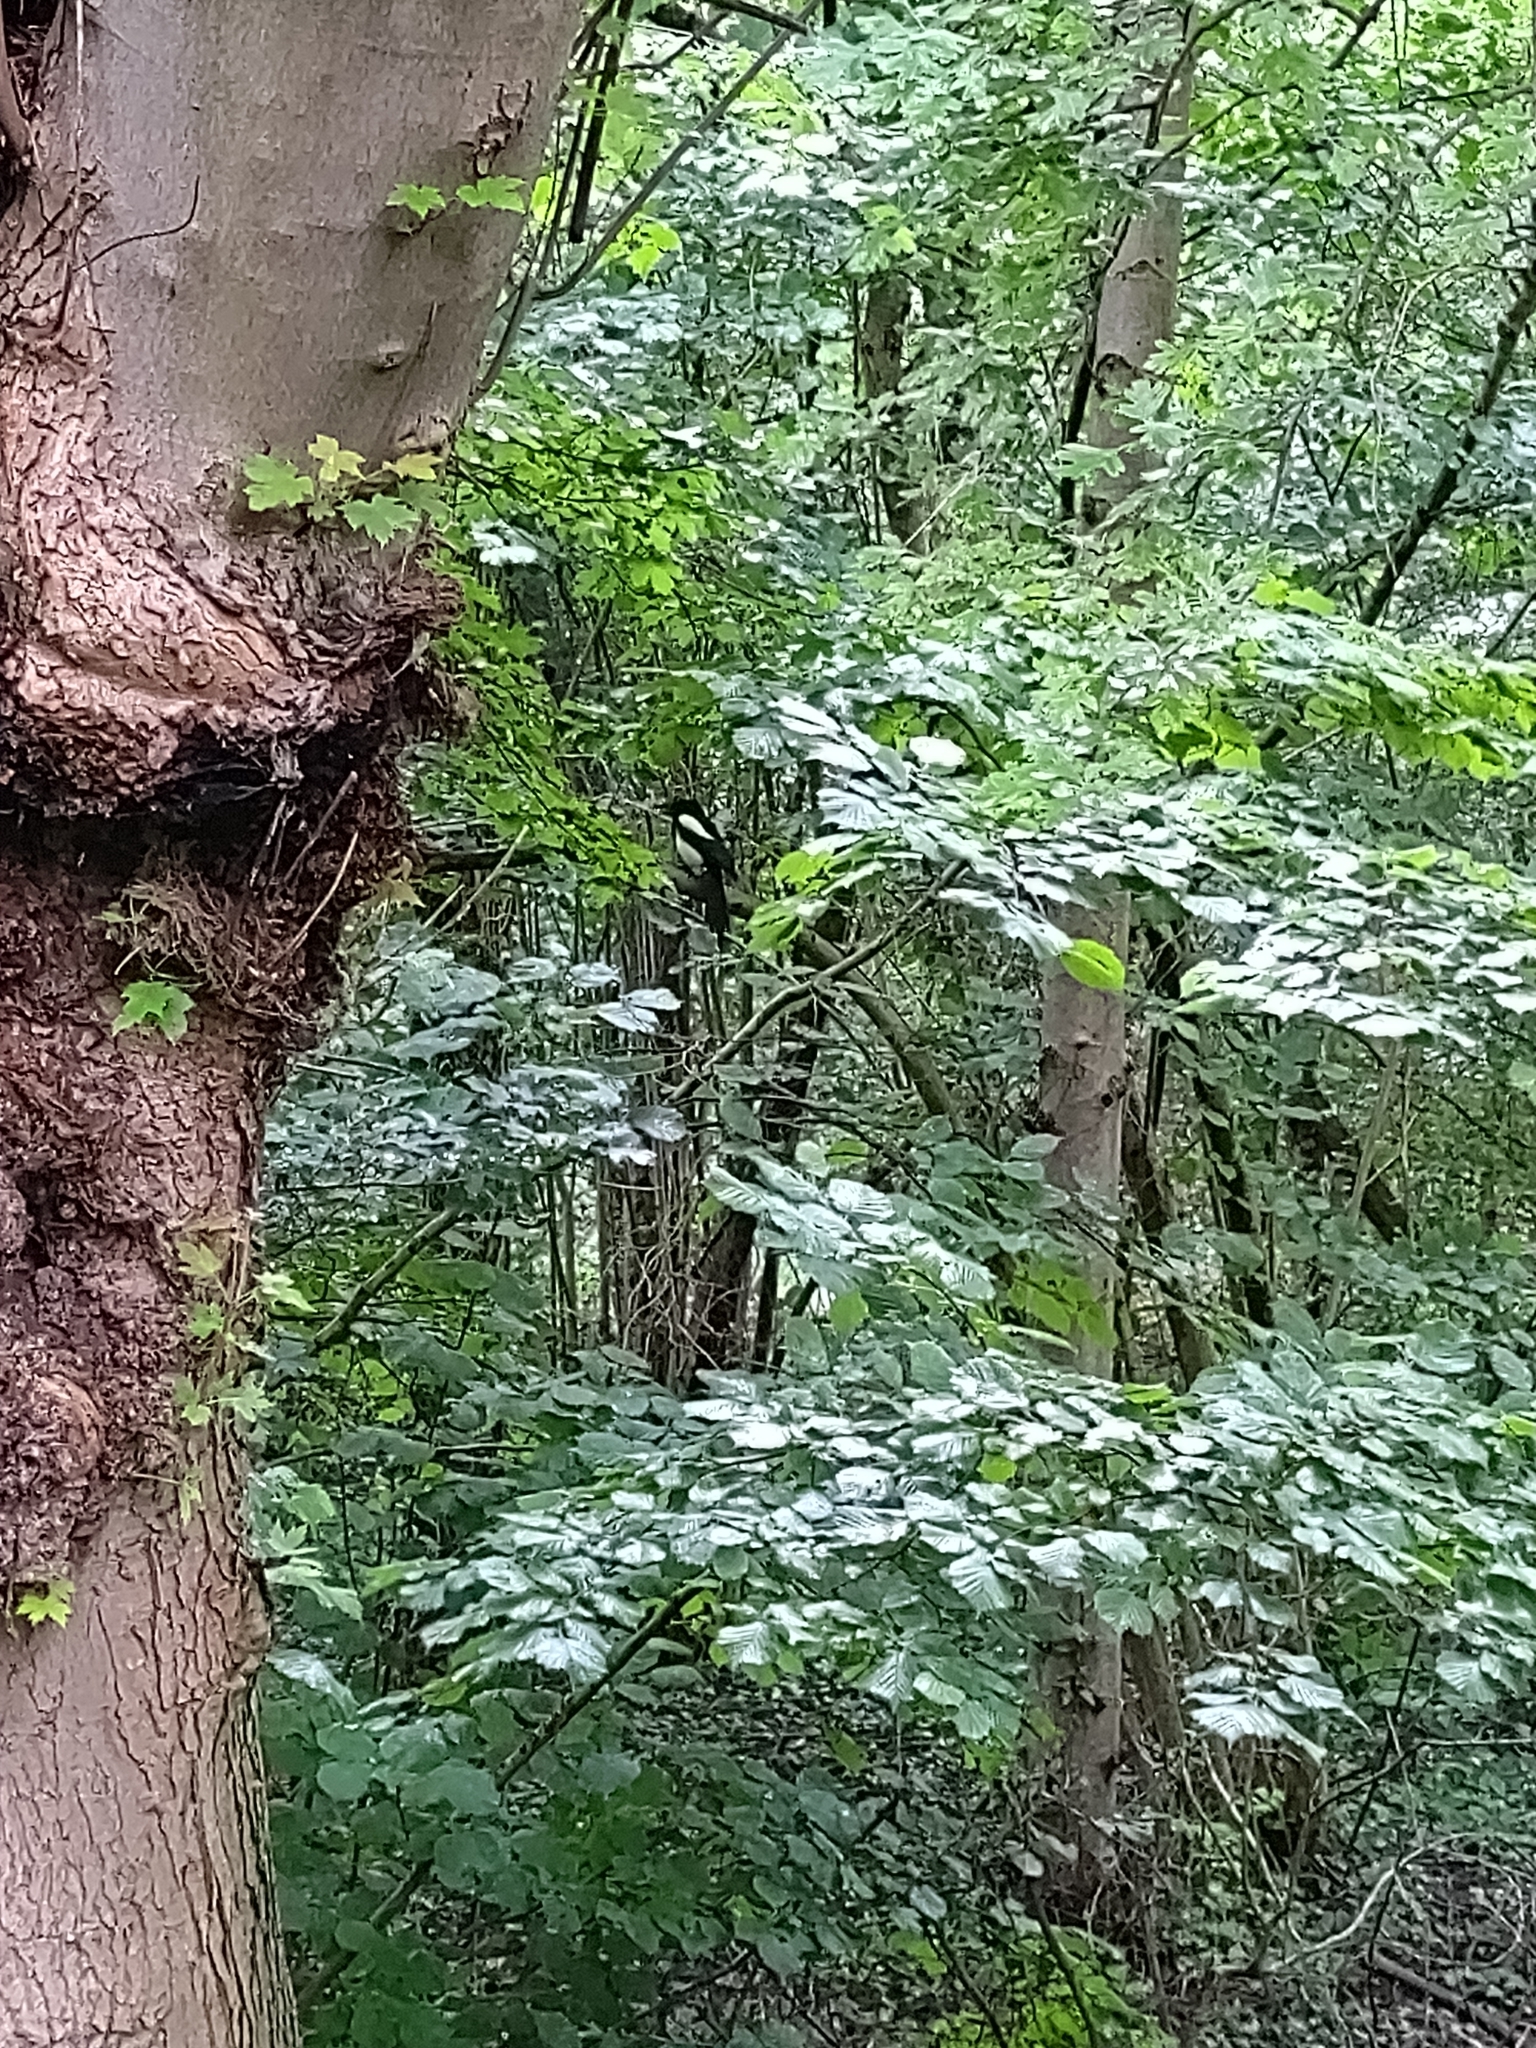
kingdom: Animalia
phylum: Chordata
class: Aves
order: Passeriformes
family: Corvidae
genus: Pica
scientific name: Pica pica
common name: Eurasian magpie
